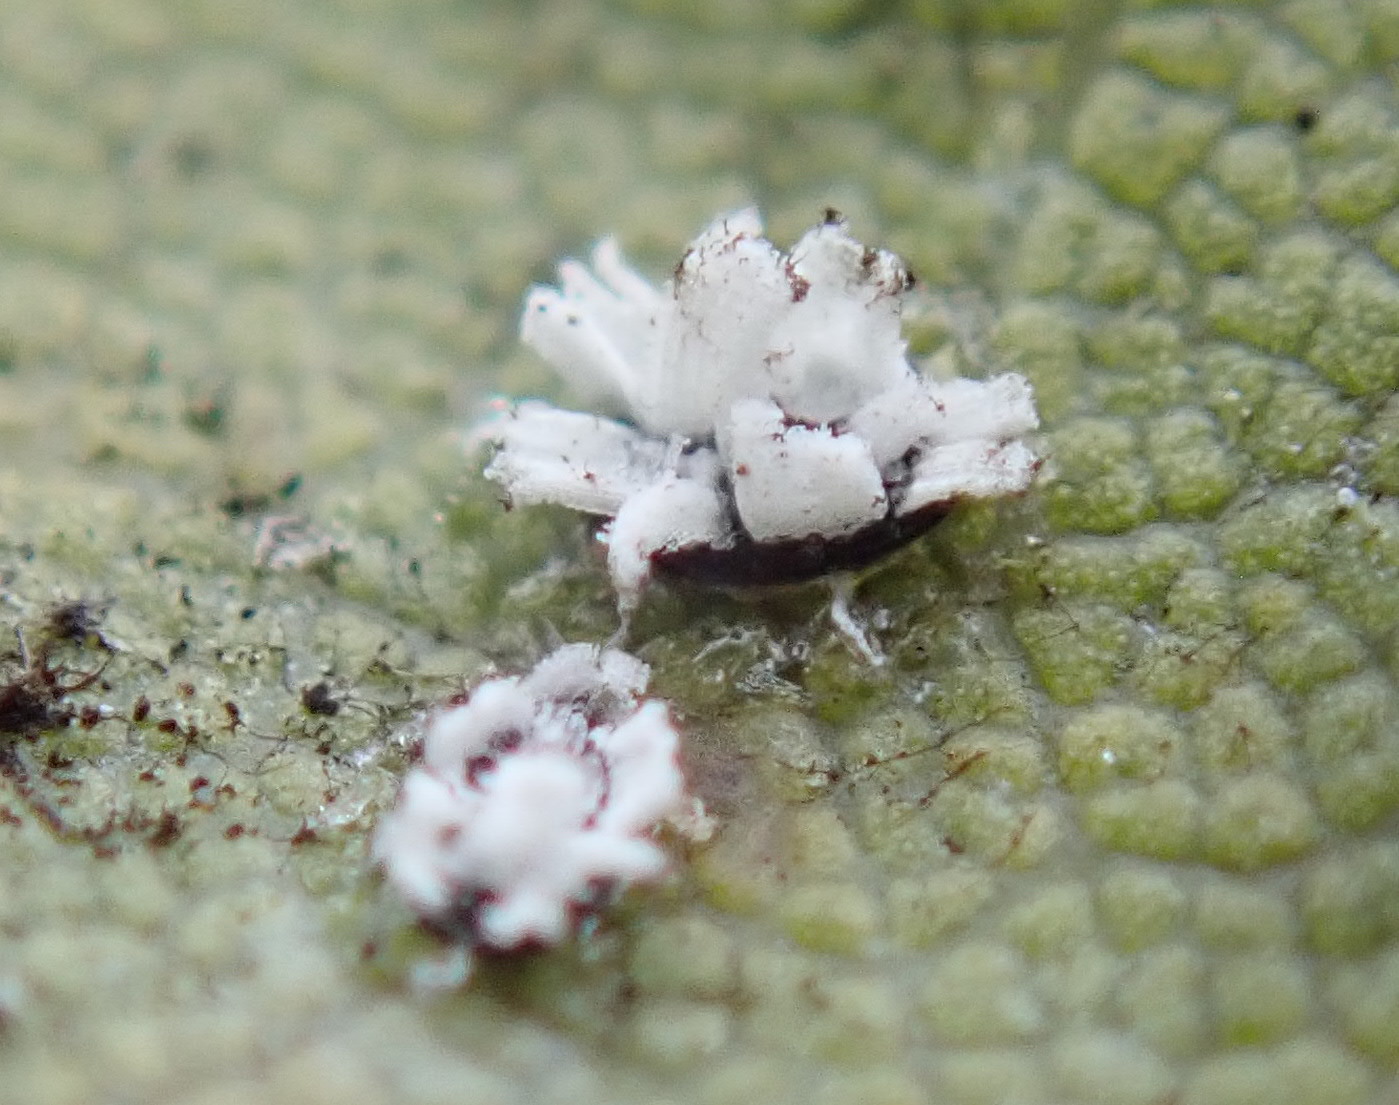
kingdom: Animalia
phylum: Arthropoda
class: Insecta
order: Hemiptera
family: Aleyrodidae
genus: Aleuroplatus
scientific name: Aleuroplatus coronata
